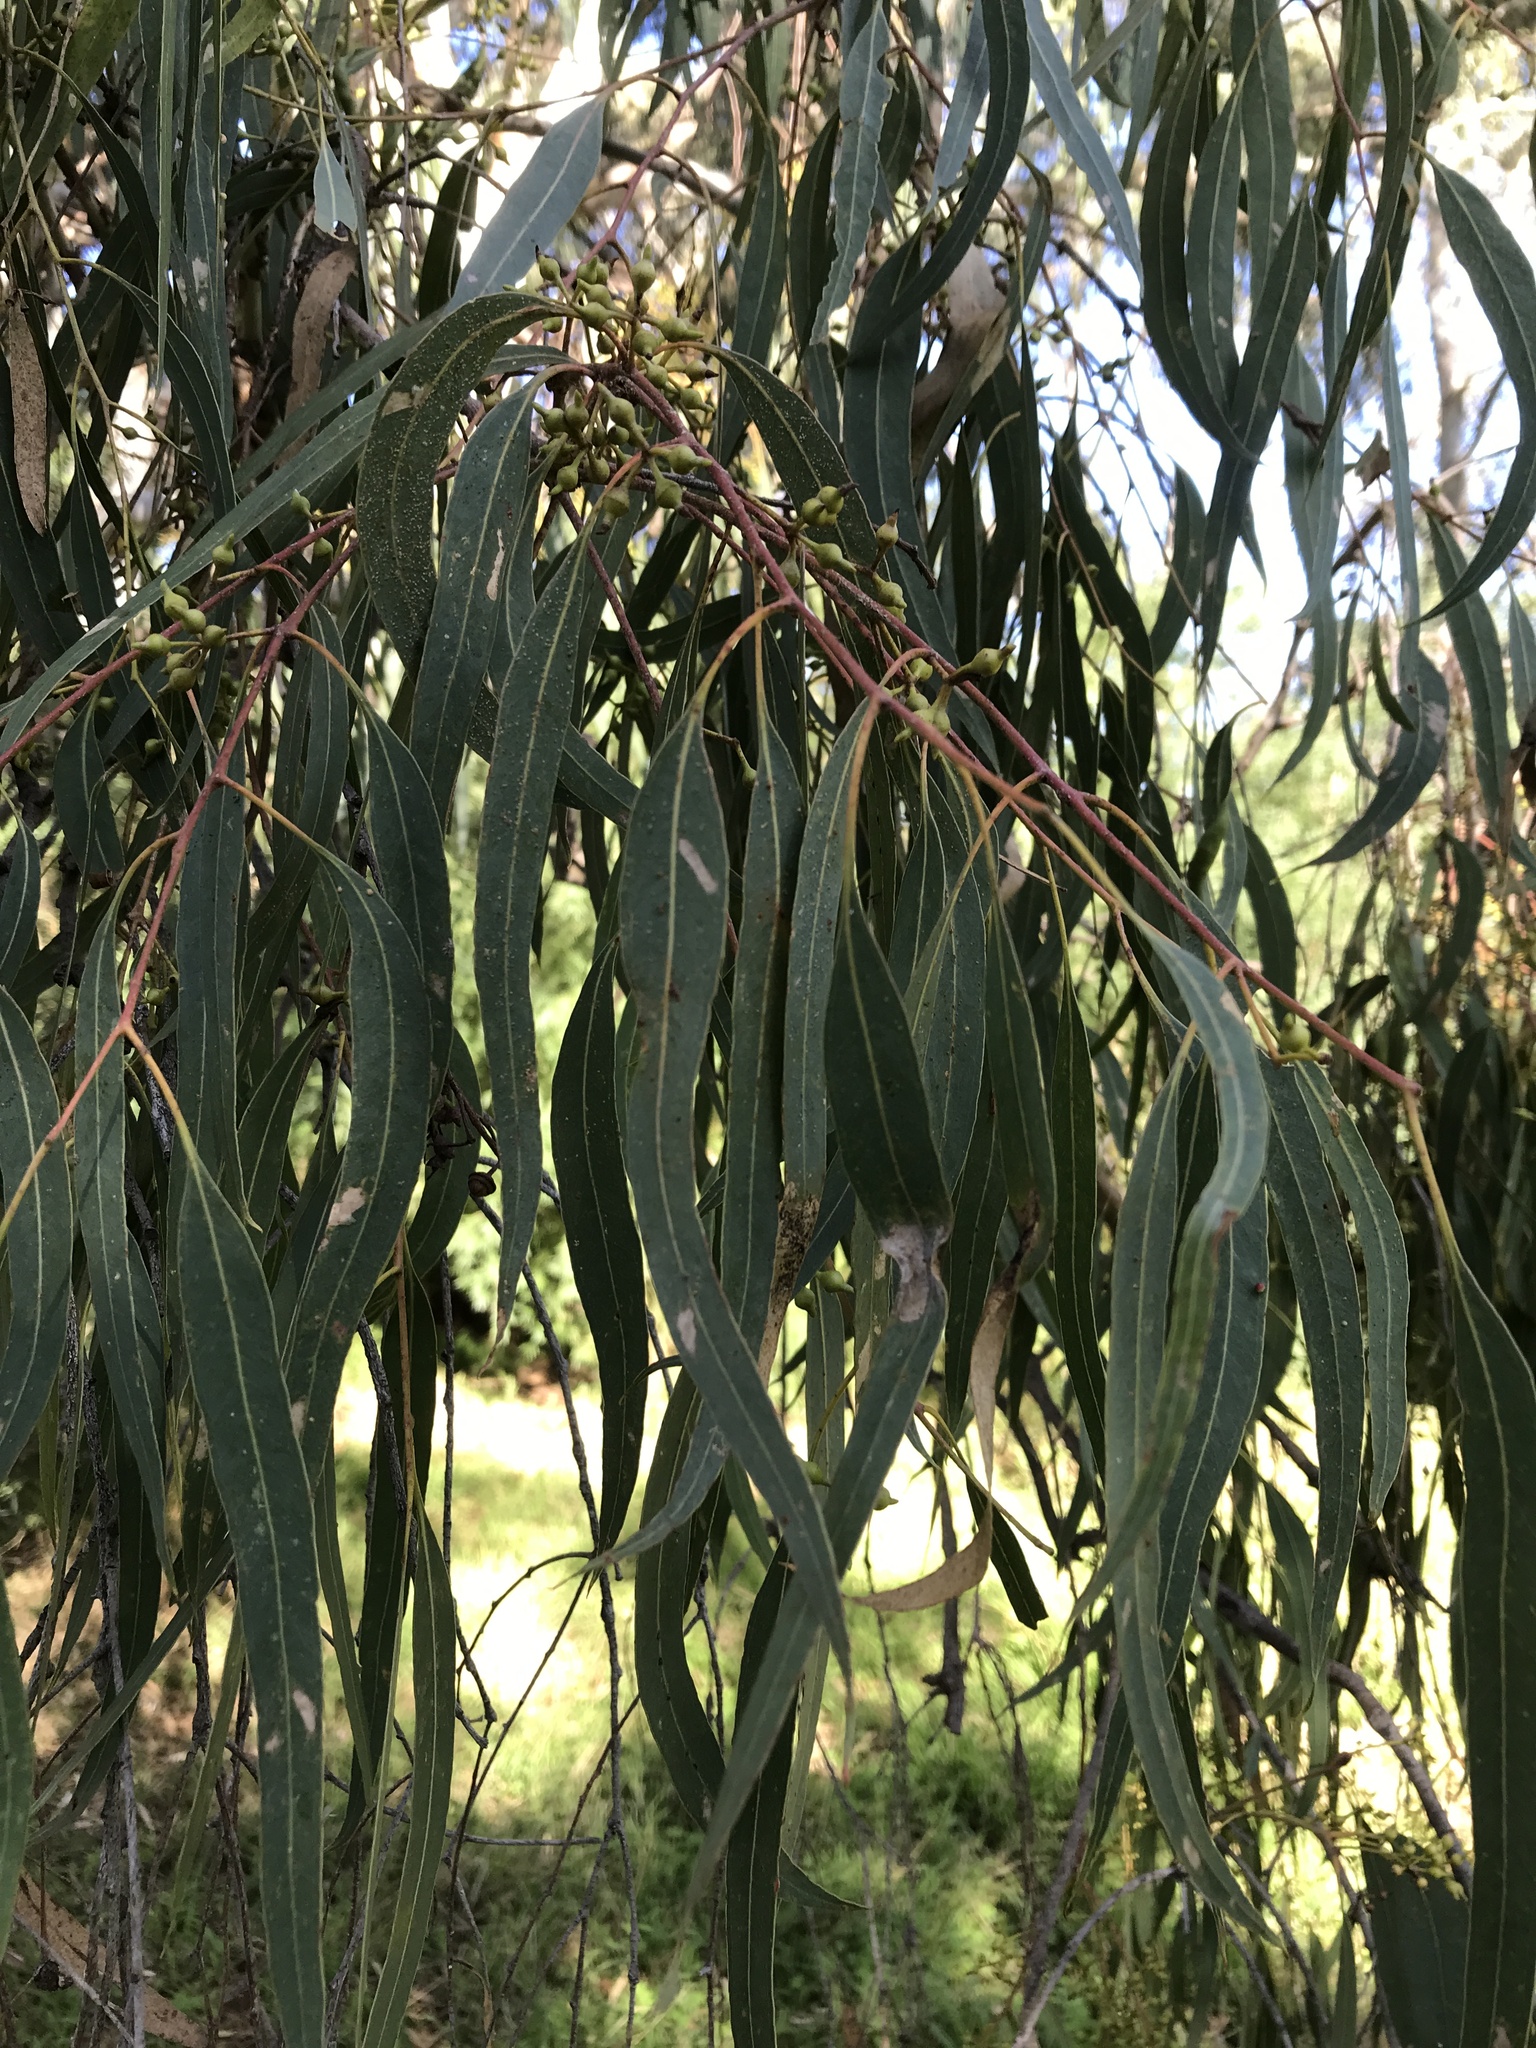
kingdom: Plantae
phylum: Tracheophyta
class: Magnoliopsida
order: Myrtales
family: Myrtaceae
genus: Eucalyptus
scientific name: Eucalyptus camaldulensis
